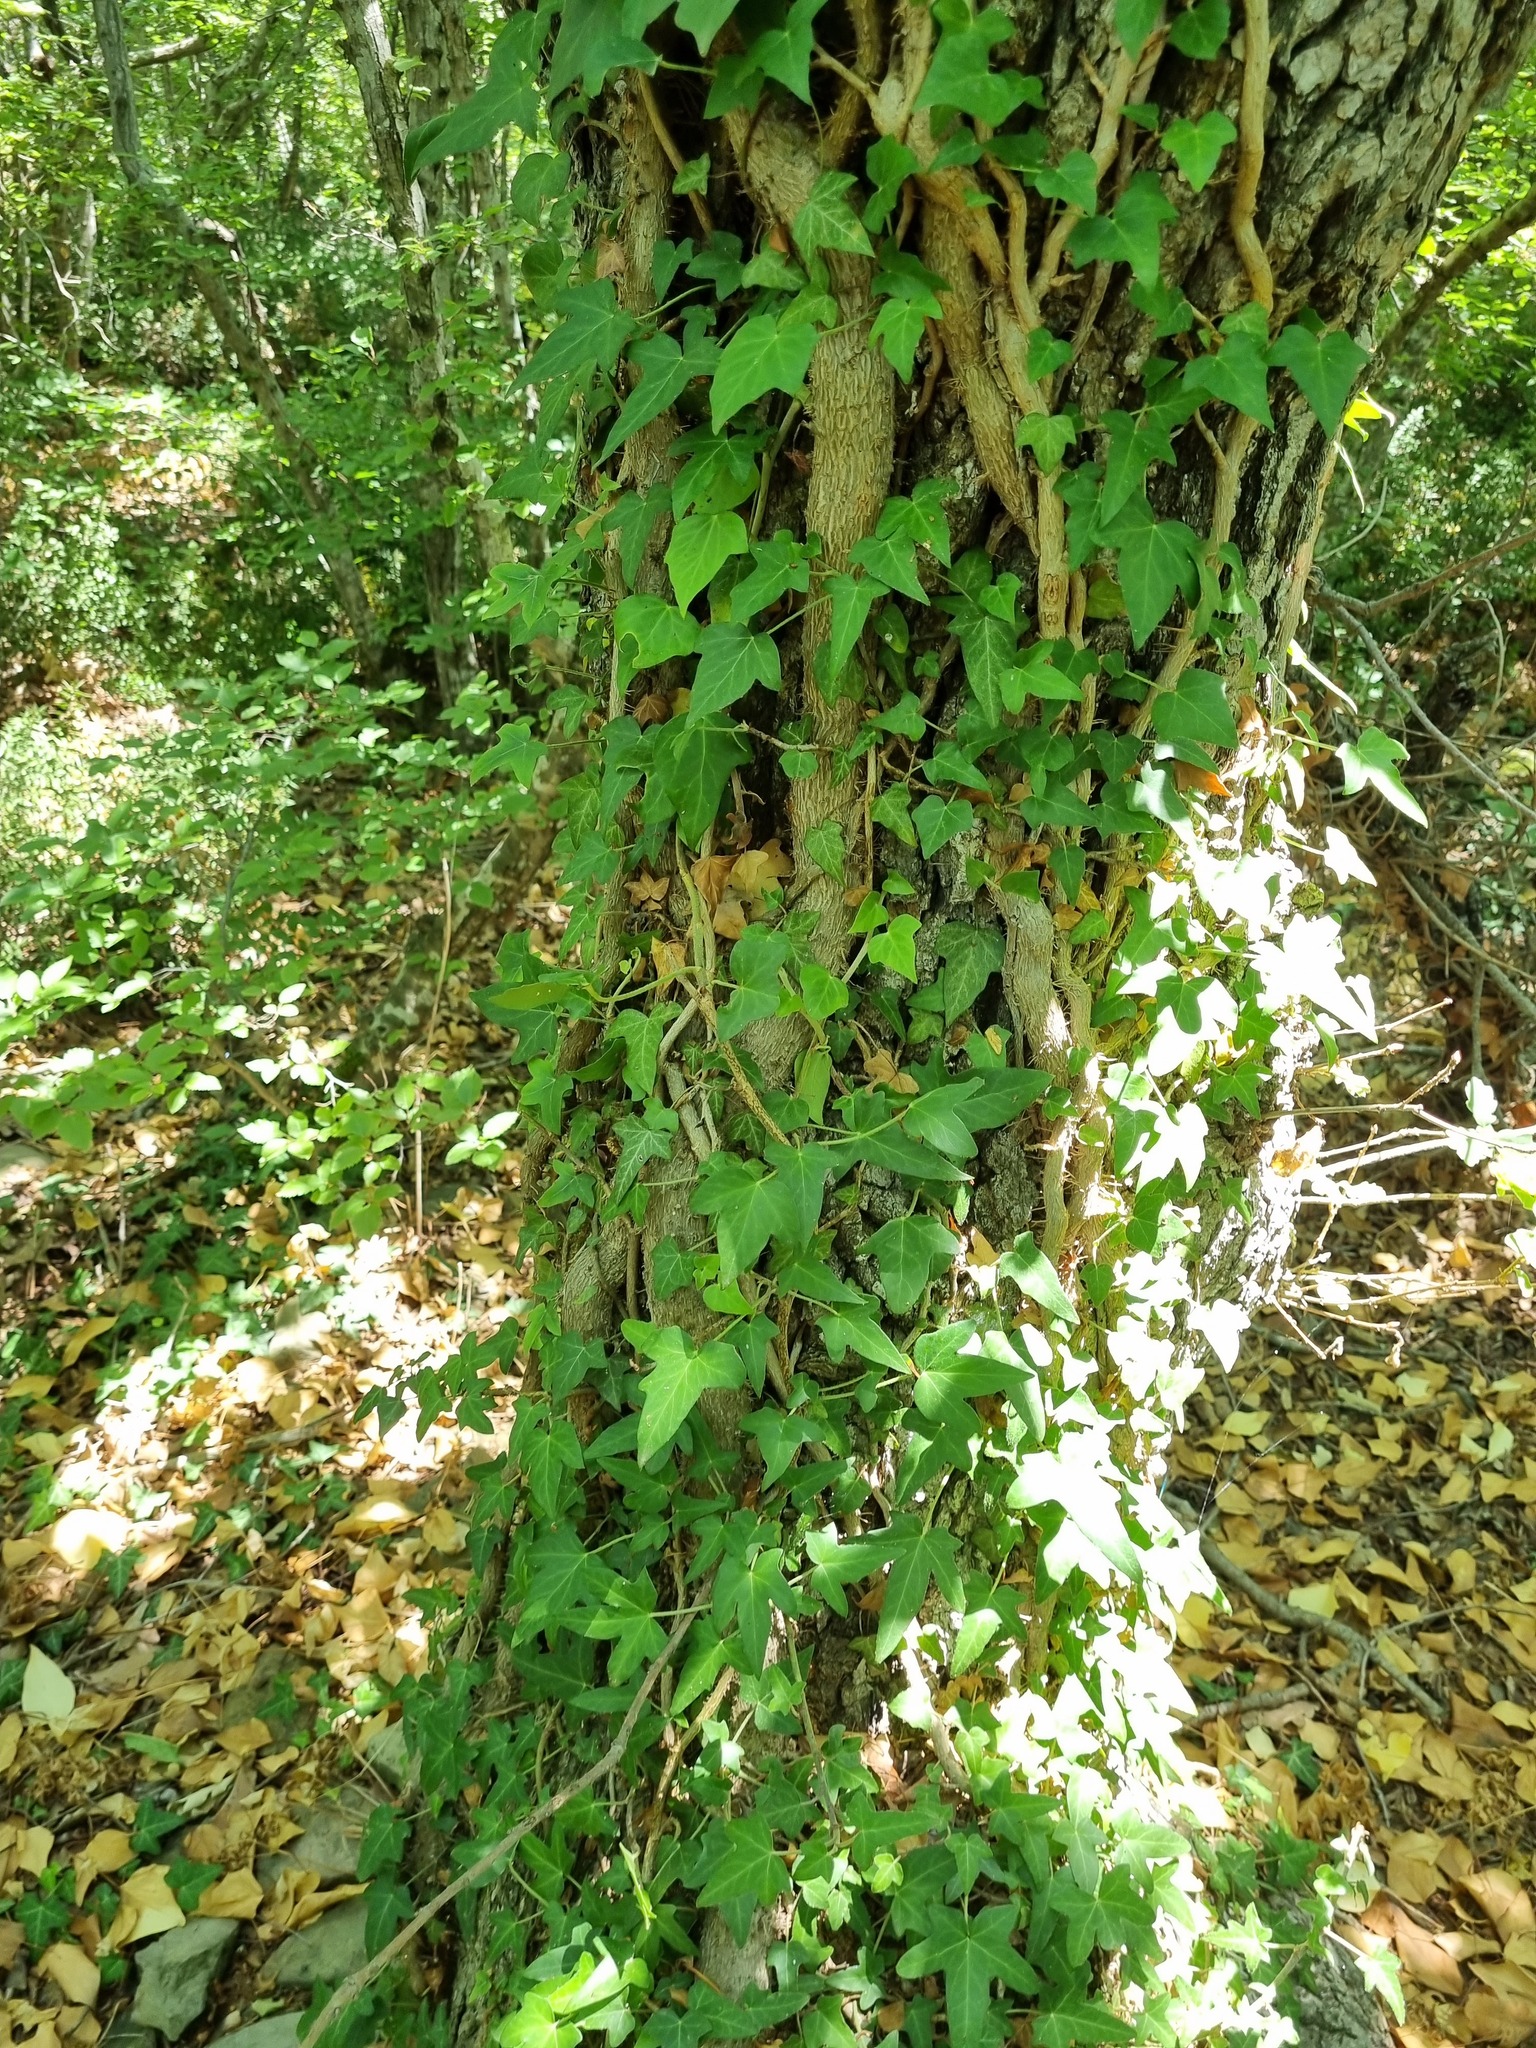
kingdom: Plantae
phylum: Tracheophyta
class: Magnoliopsida
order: Apiales
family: Araliaceae
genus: Hedera
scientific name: Hedera helix
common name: Ivy
